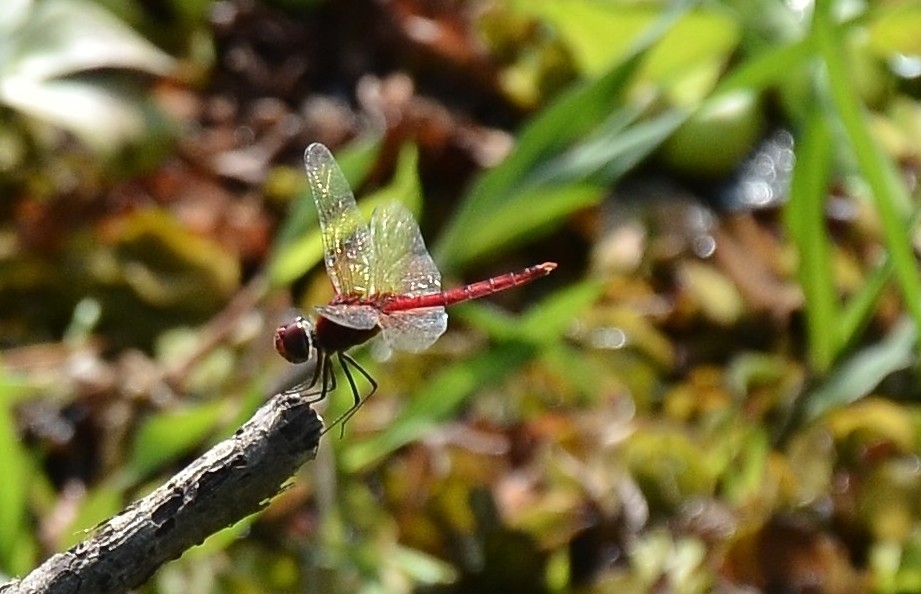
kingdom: Animalia
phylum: Arthropoda
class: Insecta
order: Odonata
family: Libellulidae
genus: Macrodiplax
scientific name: Macrodiplax cora
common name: Coastal glider
